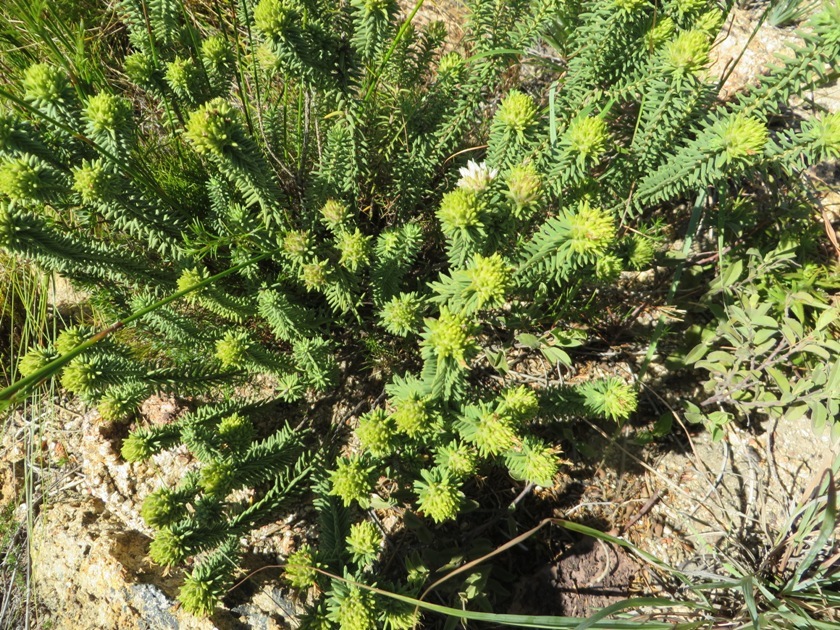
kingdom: Plantae
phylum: Tracheophyta
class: Magnoliopsida
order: Lamiales
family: Stilbaceae
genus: Campylostachys
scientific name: Campylostachys cernua
